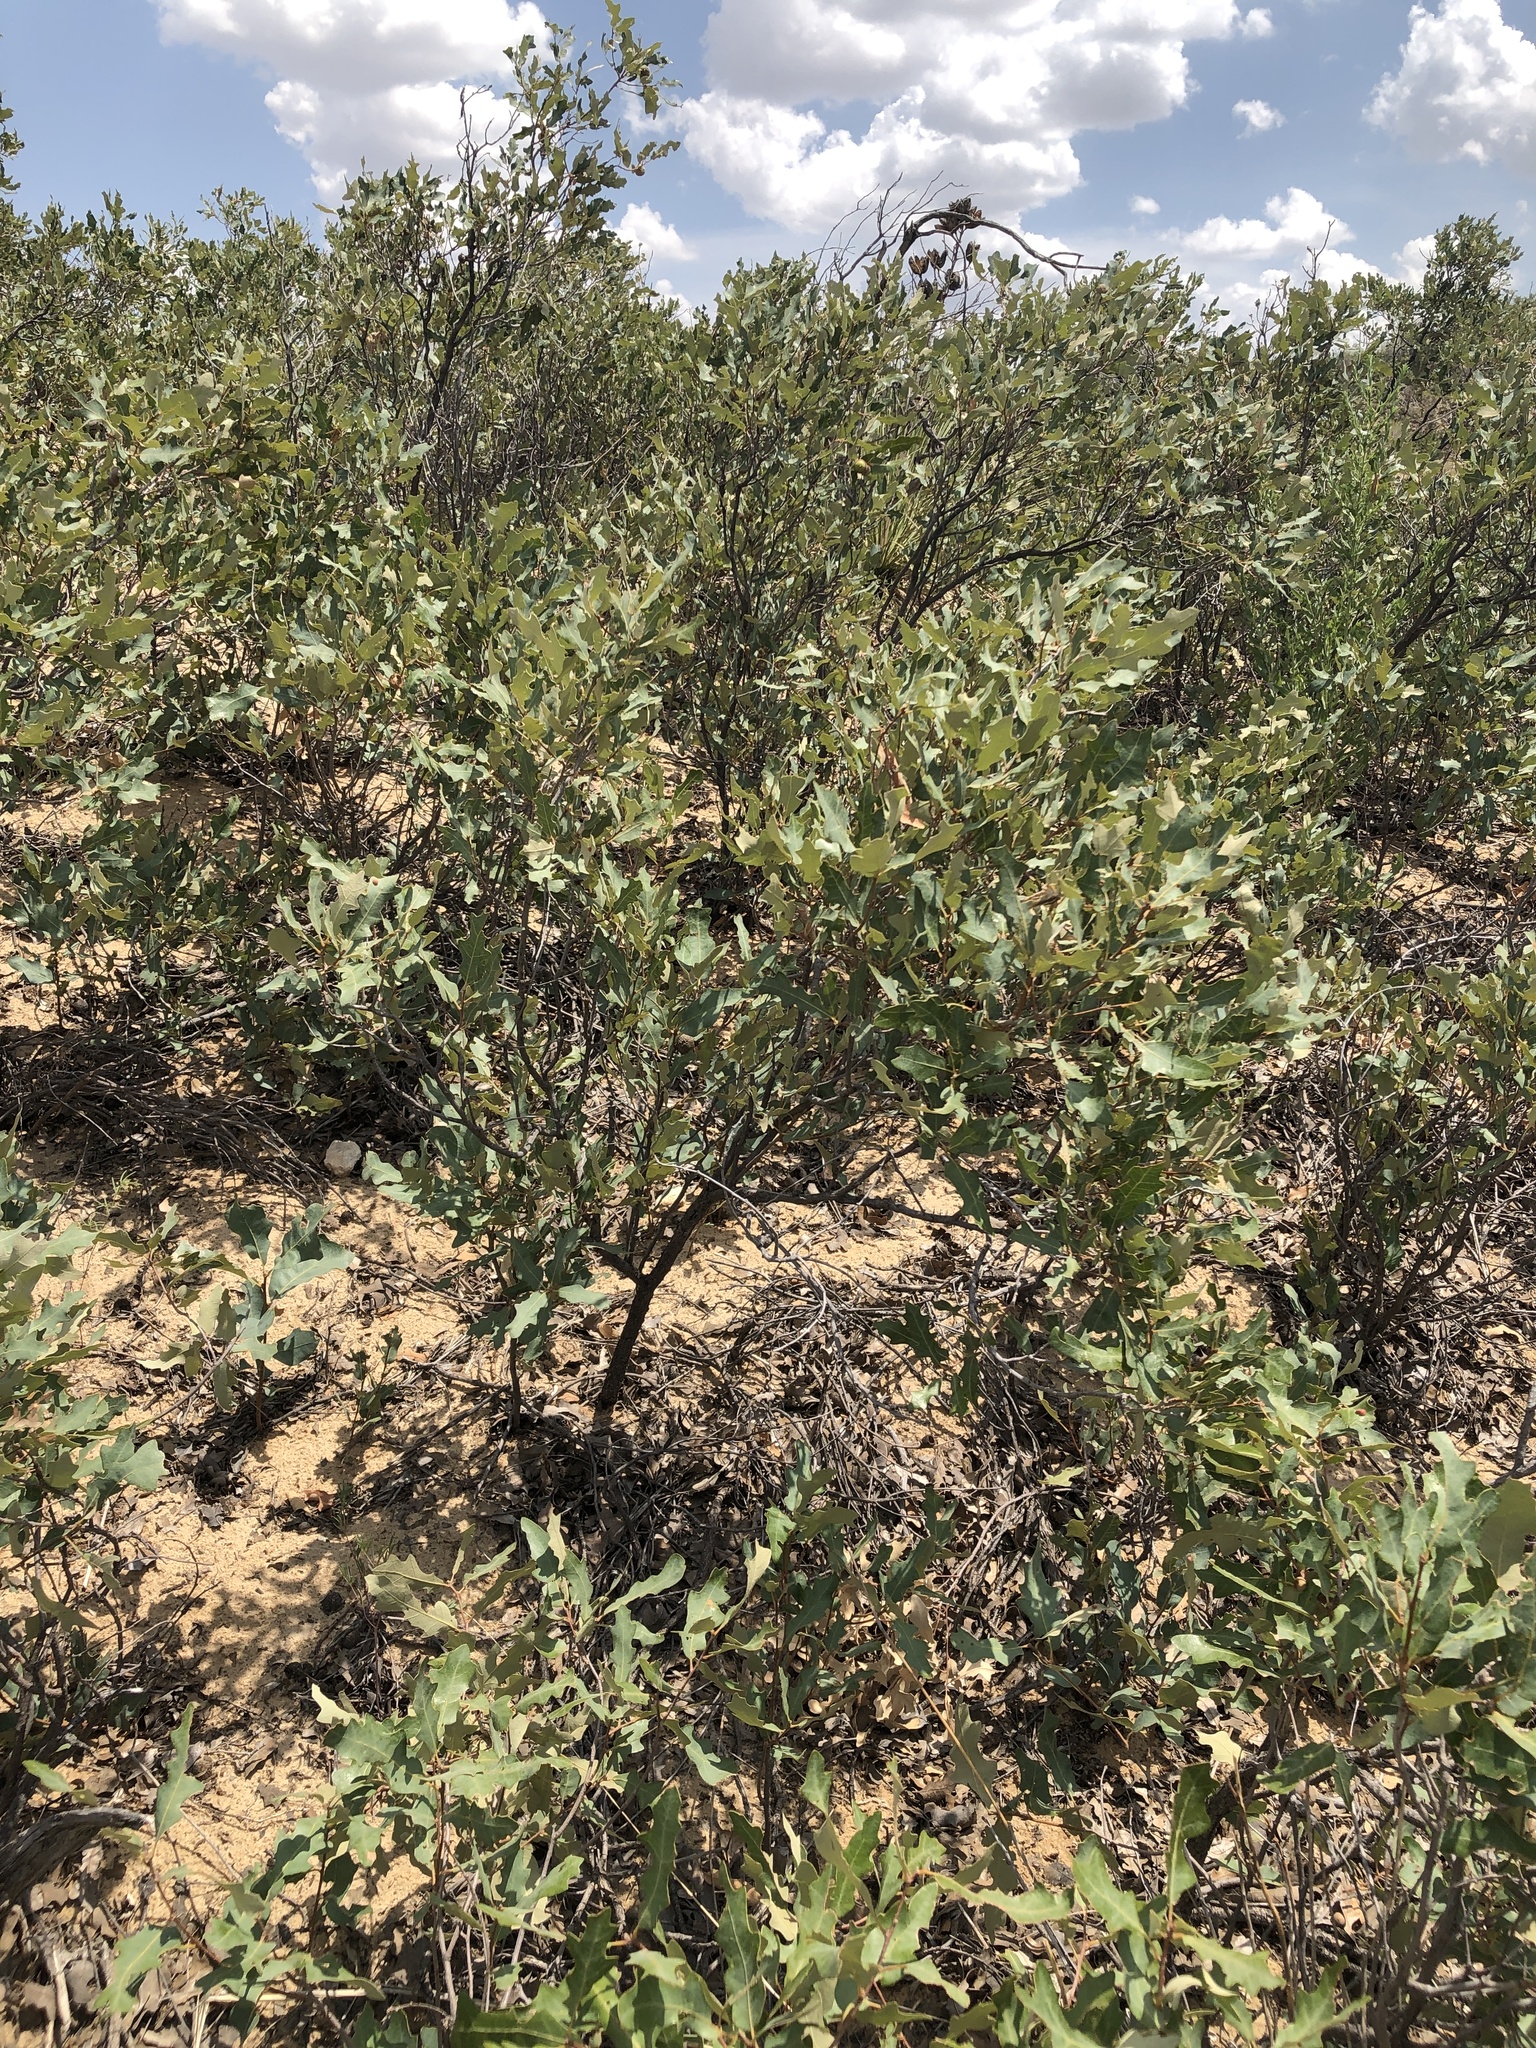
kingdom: Plantae
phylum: Tracheophyta
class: Magnoliopsida
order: Fagales
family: Fagaceae
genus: Quercus
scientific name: Quercus havardii
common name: Shinnery oak
